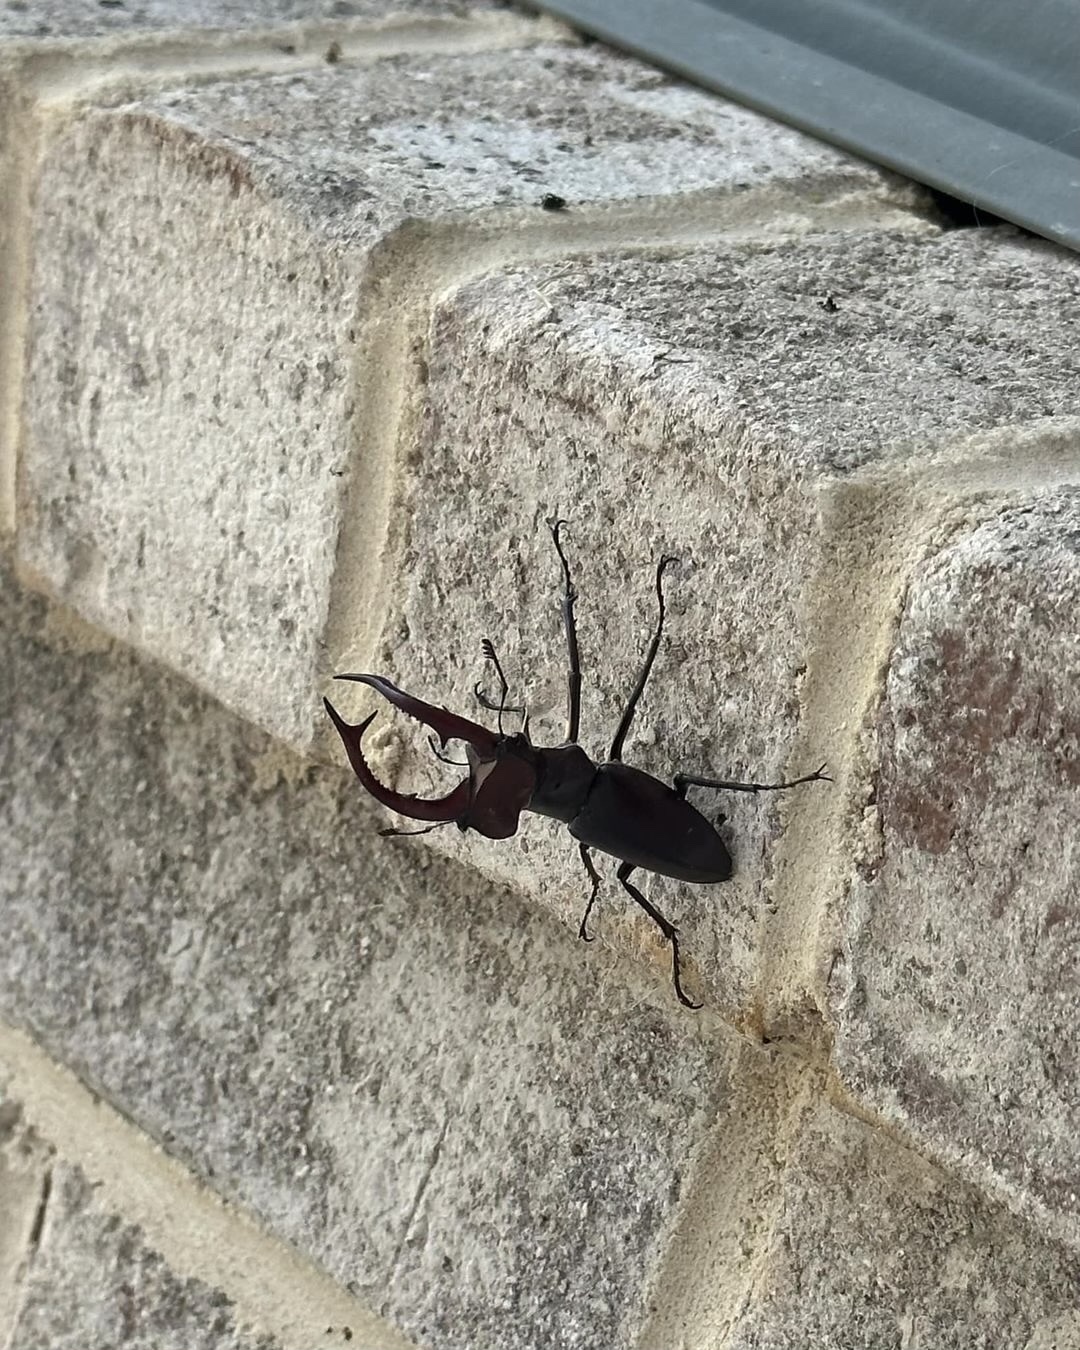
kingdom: Animalia
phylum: Arthropoda
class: Insecta
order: Coleoptera
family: Lucanidae
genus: Lucanus
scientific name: Lucanus elaphus
